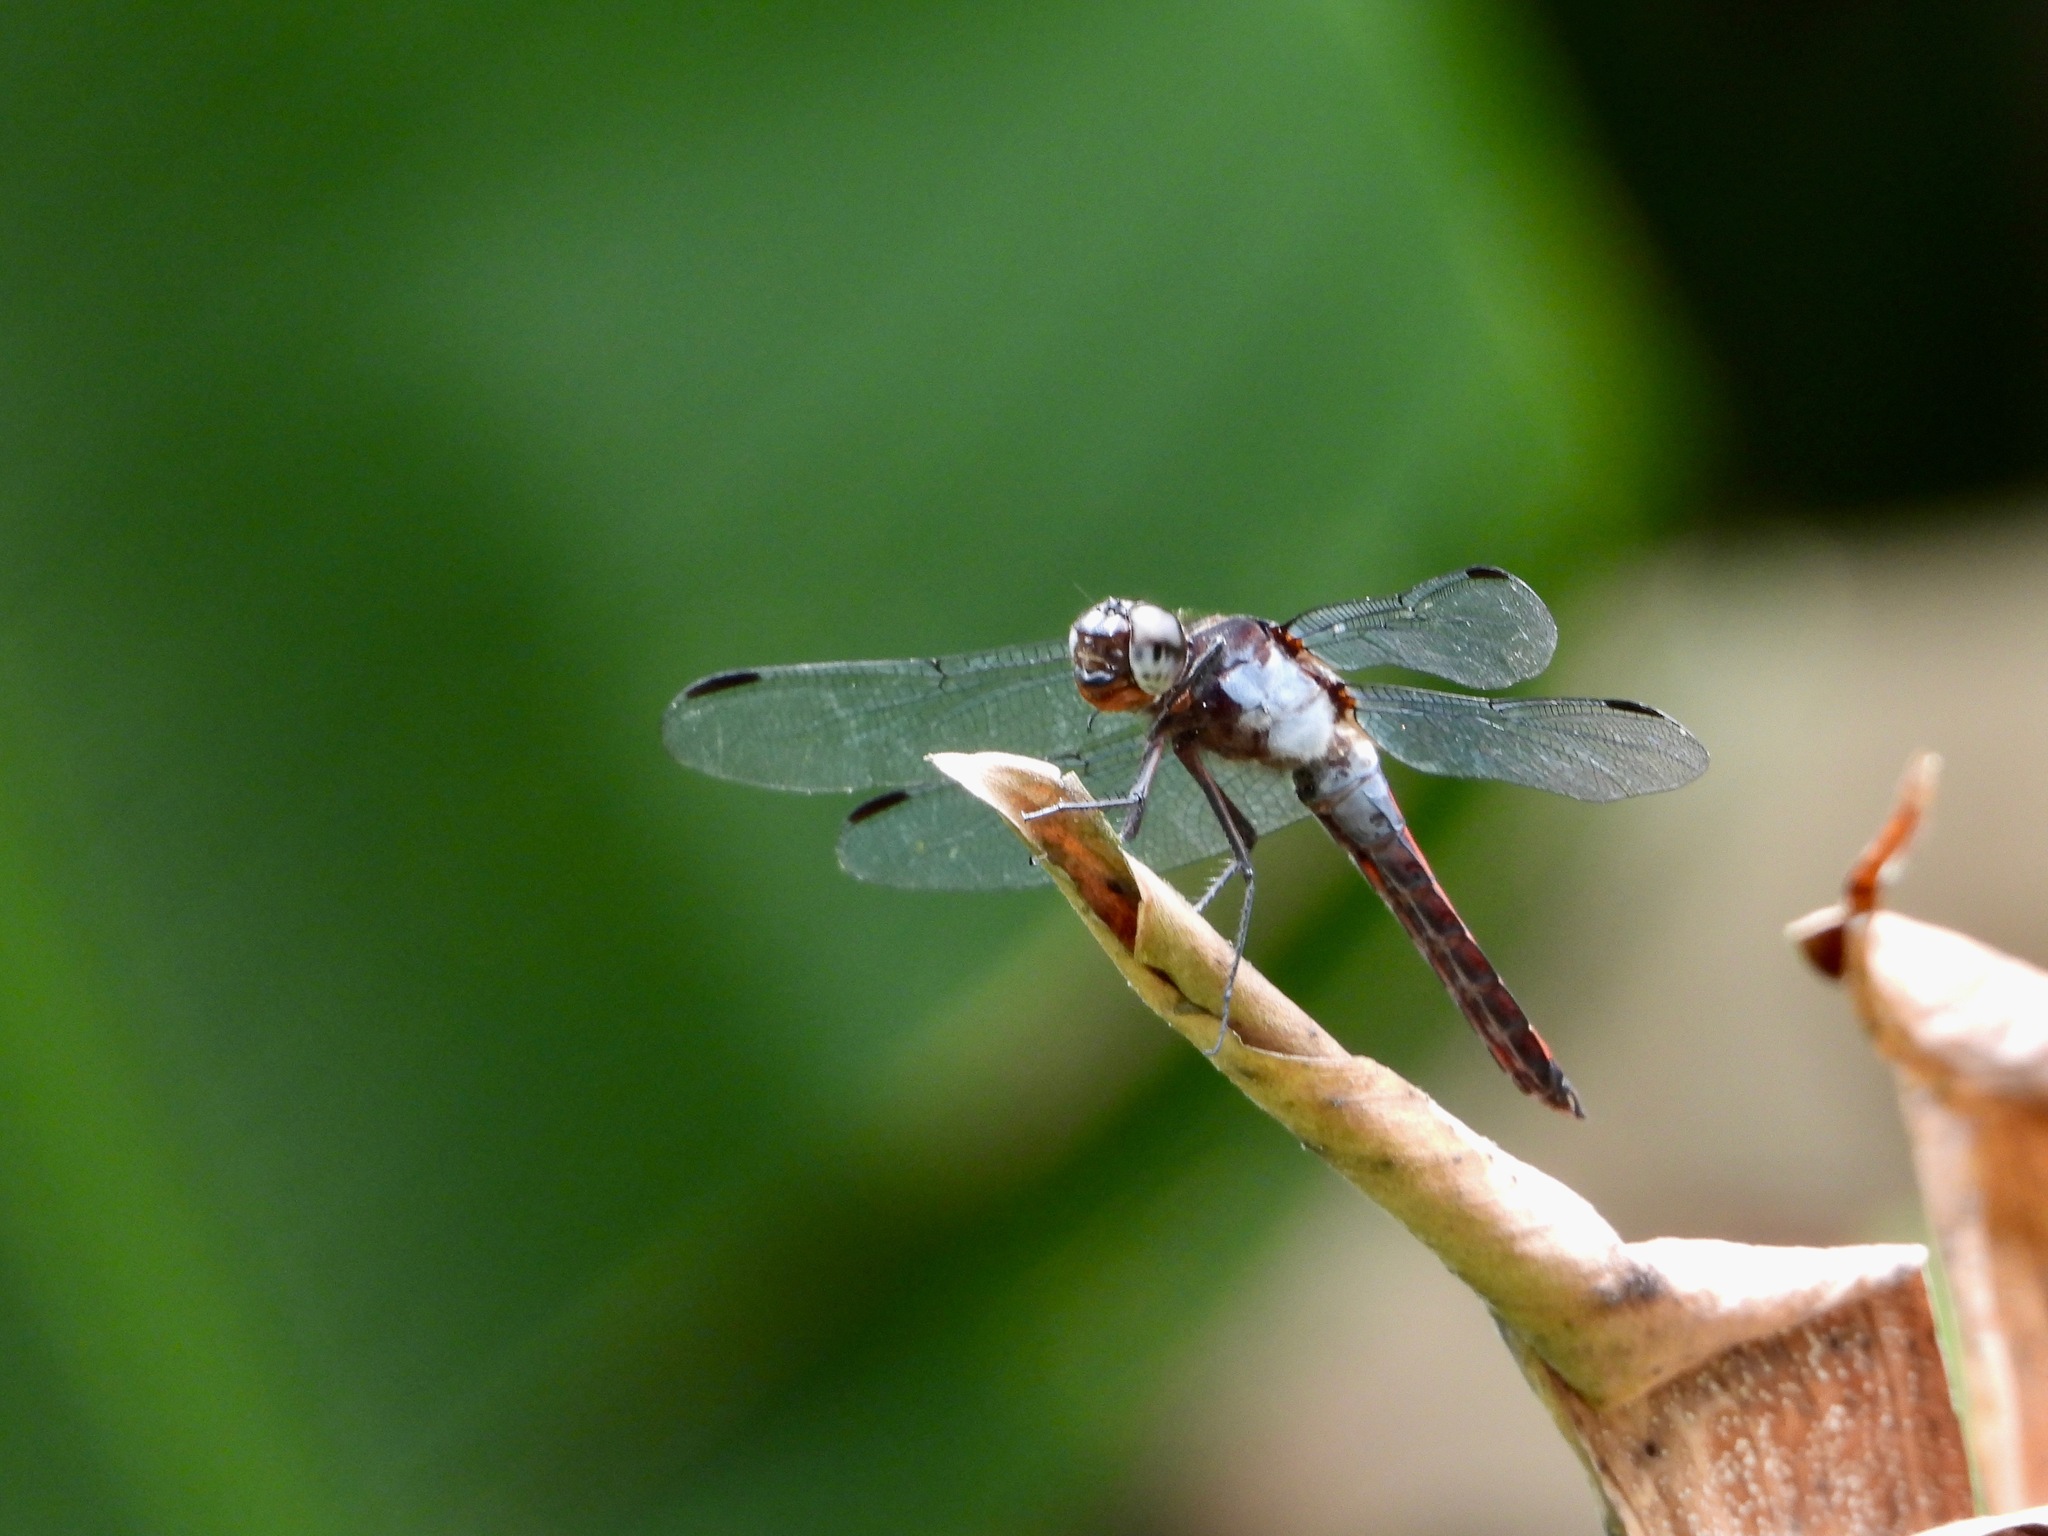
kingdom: Animalia
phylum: Arthropoda
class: Insecta
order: Odonata
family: Libellulidae
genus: Libellula
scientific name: Libellula herculea
